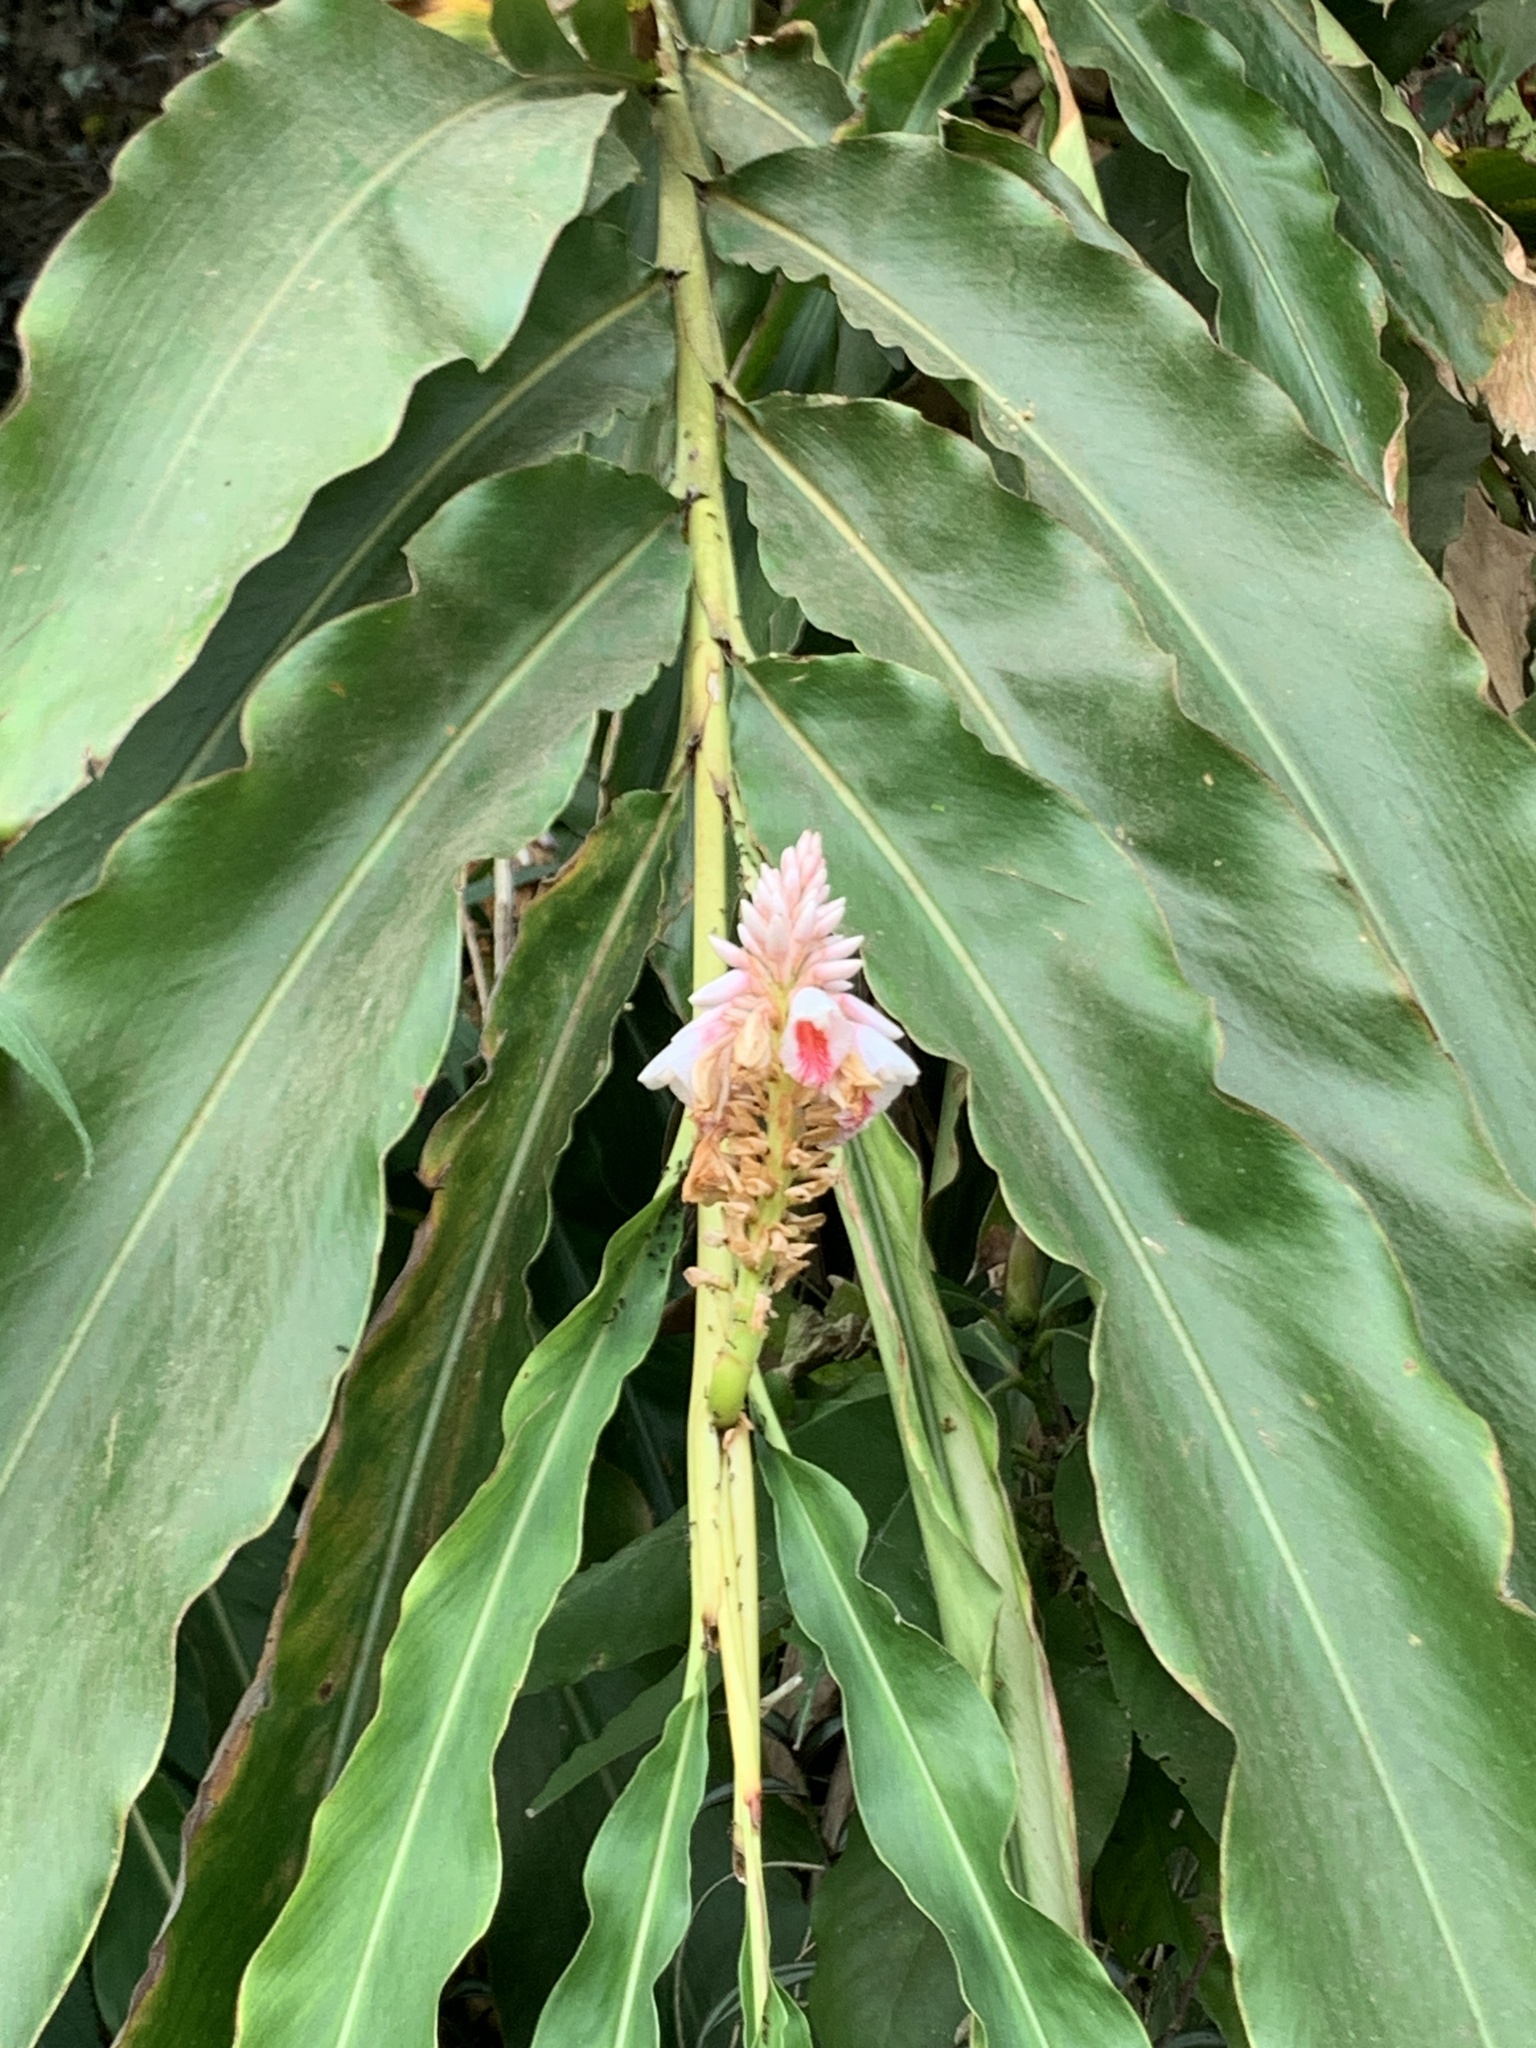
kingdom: Plantae
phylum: Tracheophyta
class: Liliopsida
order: Zingiberales
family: Zingiberaceae
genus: Alpinia
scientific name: Alpinia shimadae
